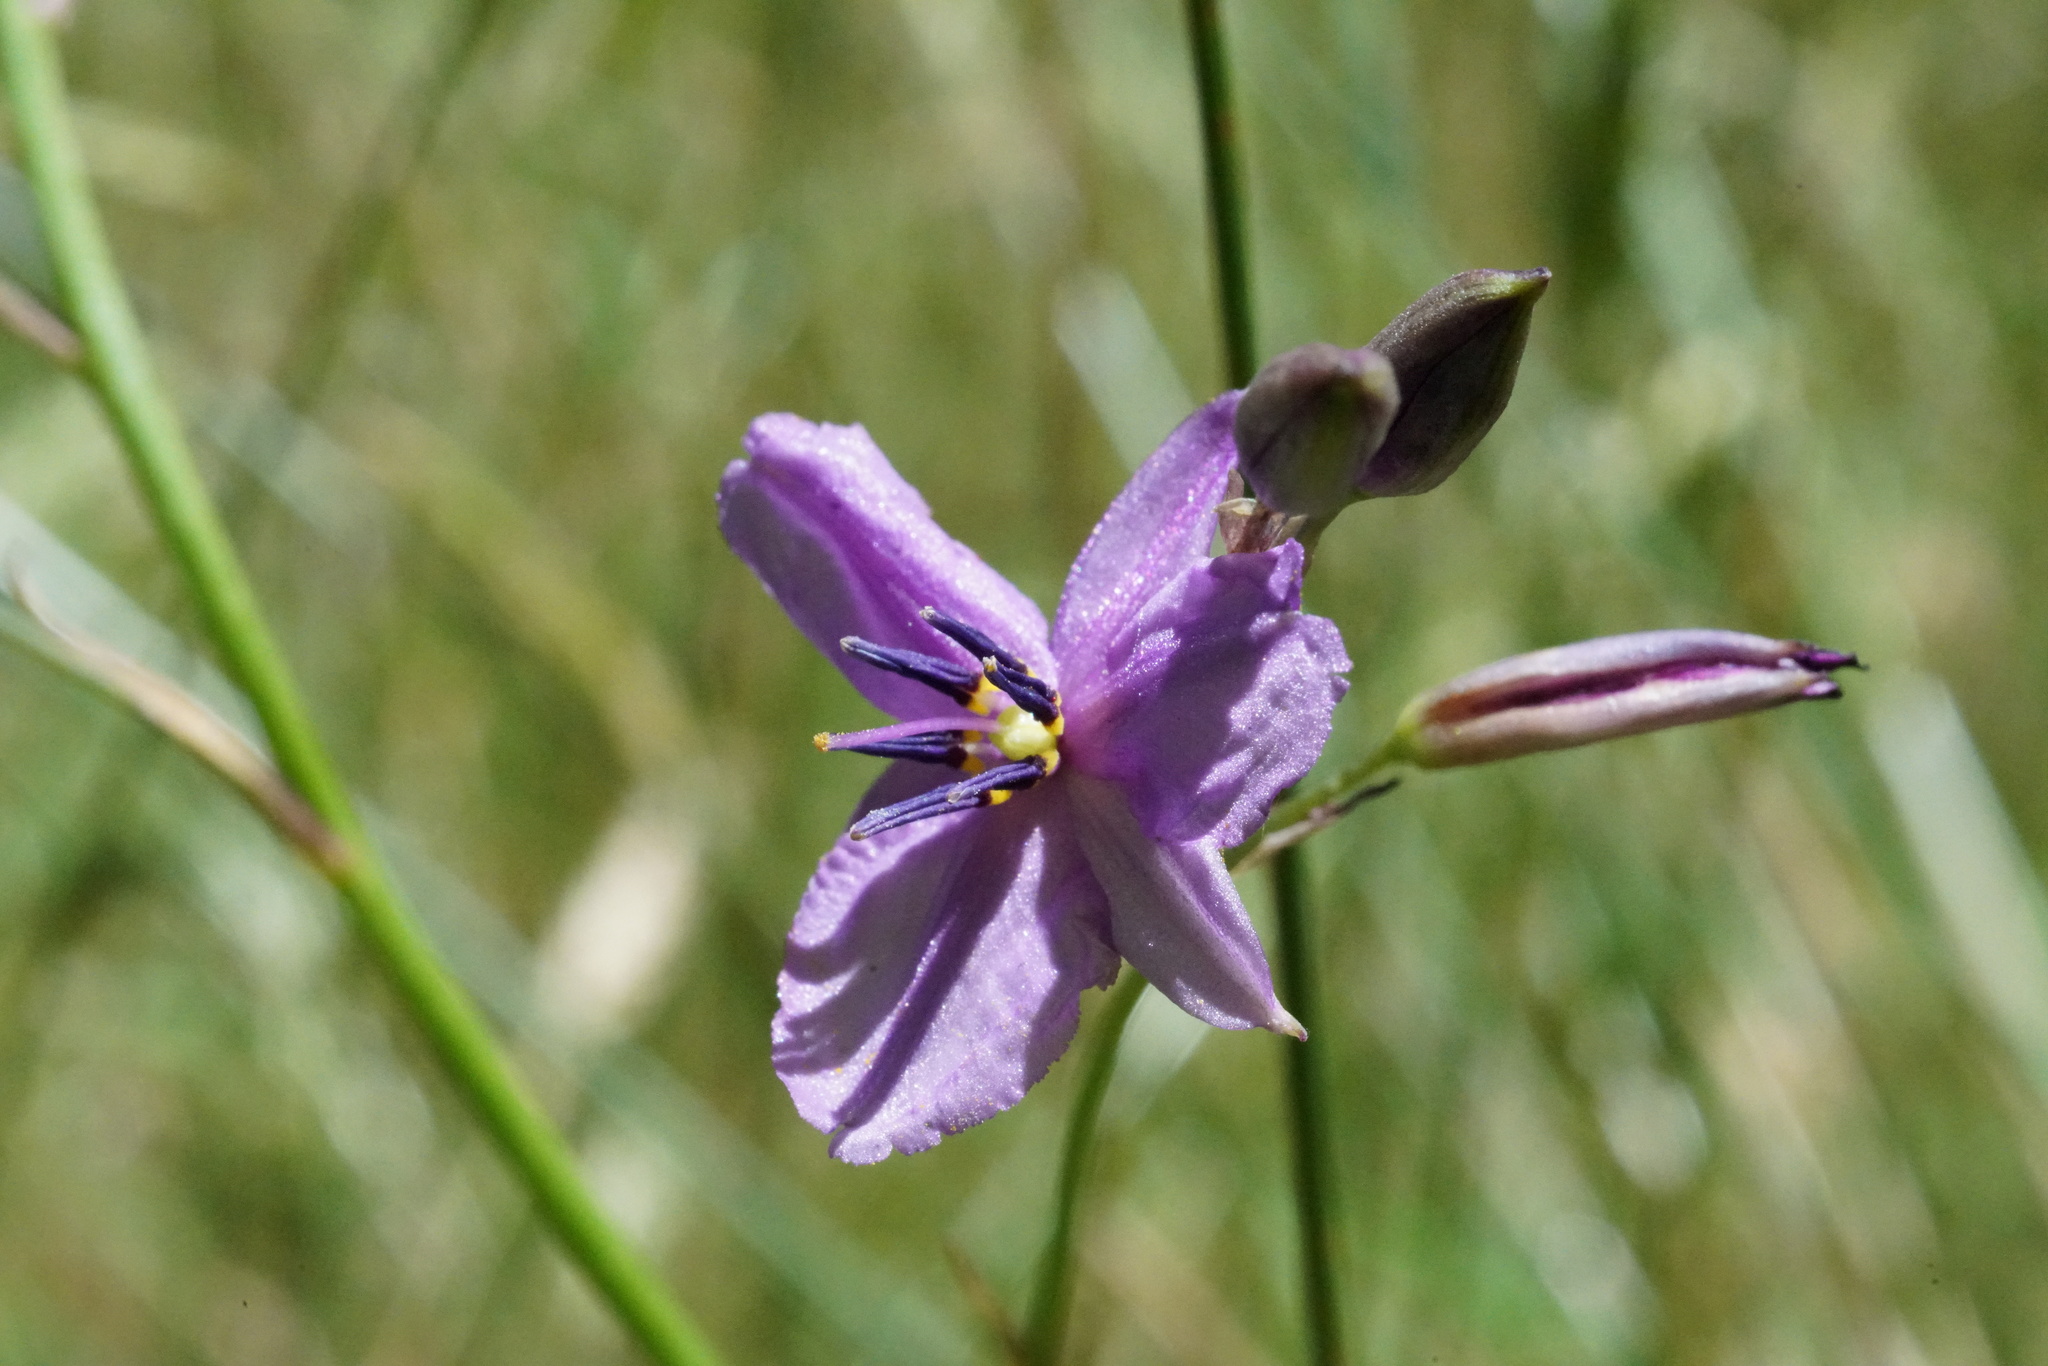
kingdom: Plantae
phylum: Tracheophyta
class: Liliopsida
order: Asparagales
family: Asparagaceae
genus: Arthropodium
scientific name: Arthropodium strictum
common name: Chocolate-lily
